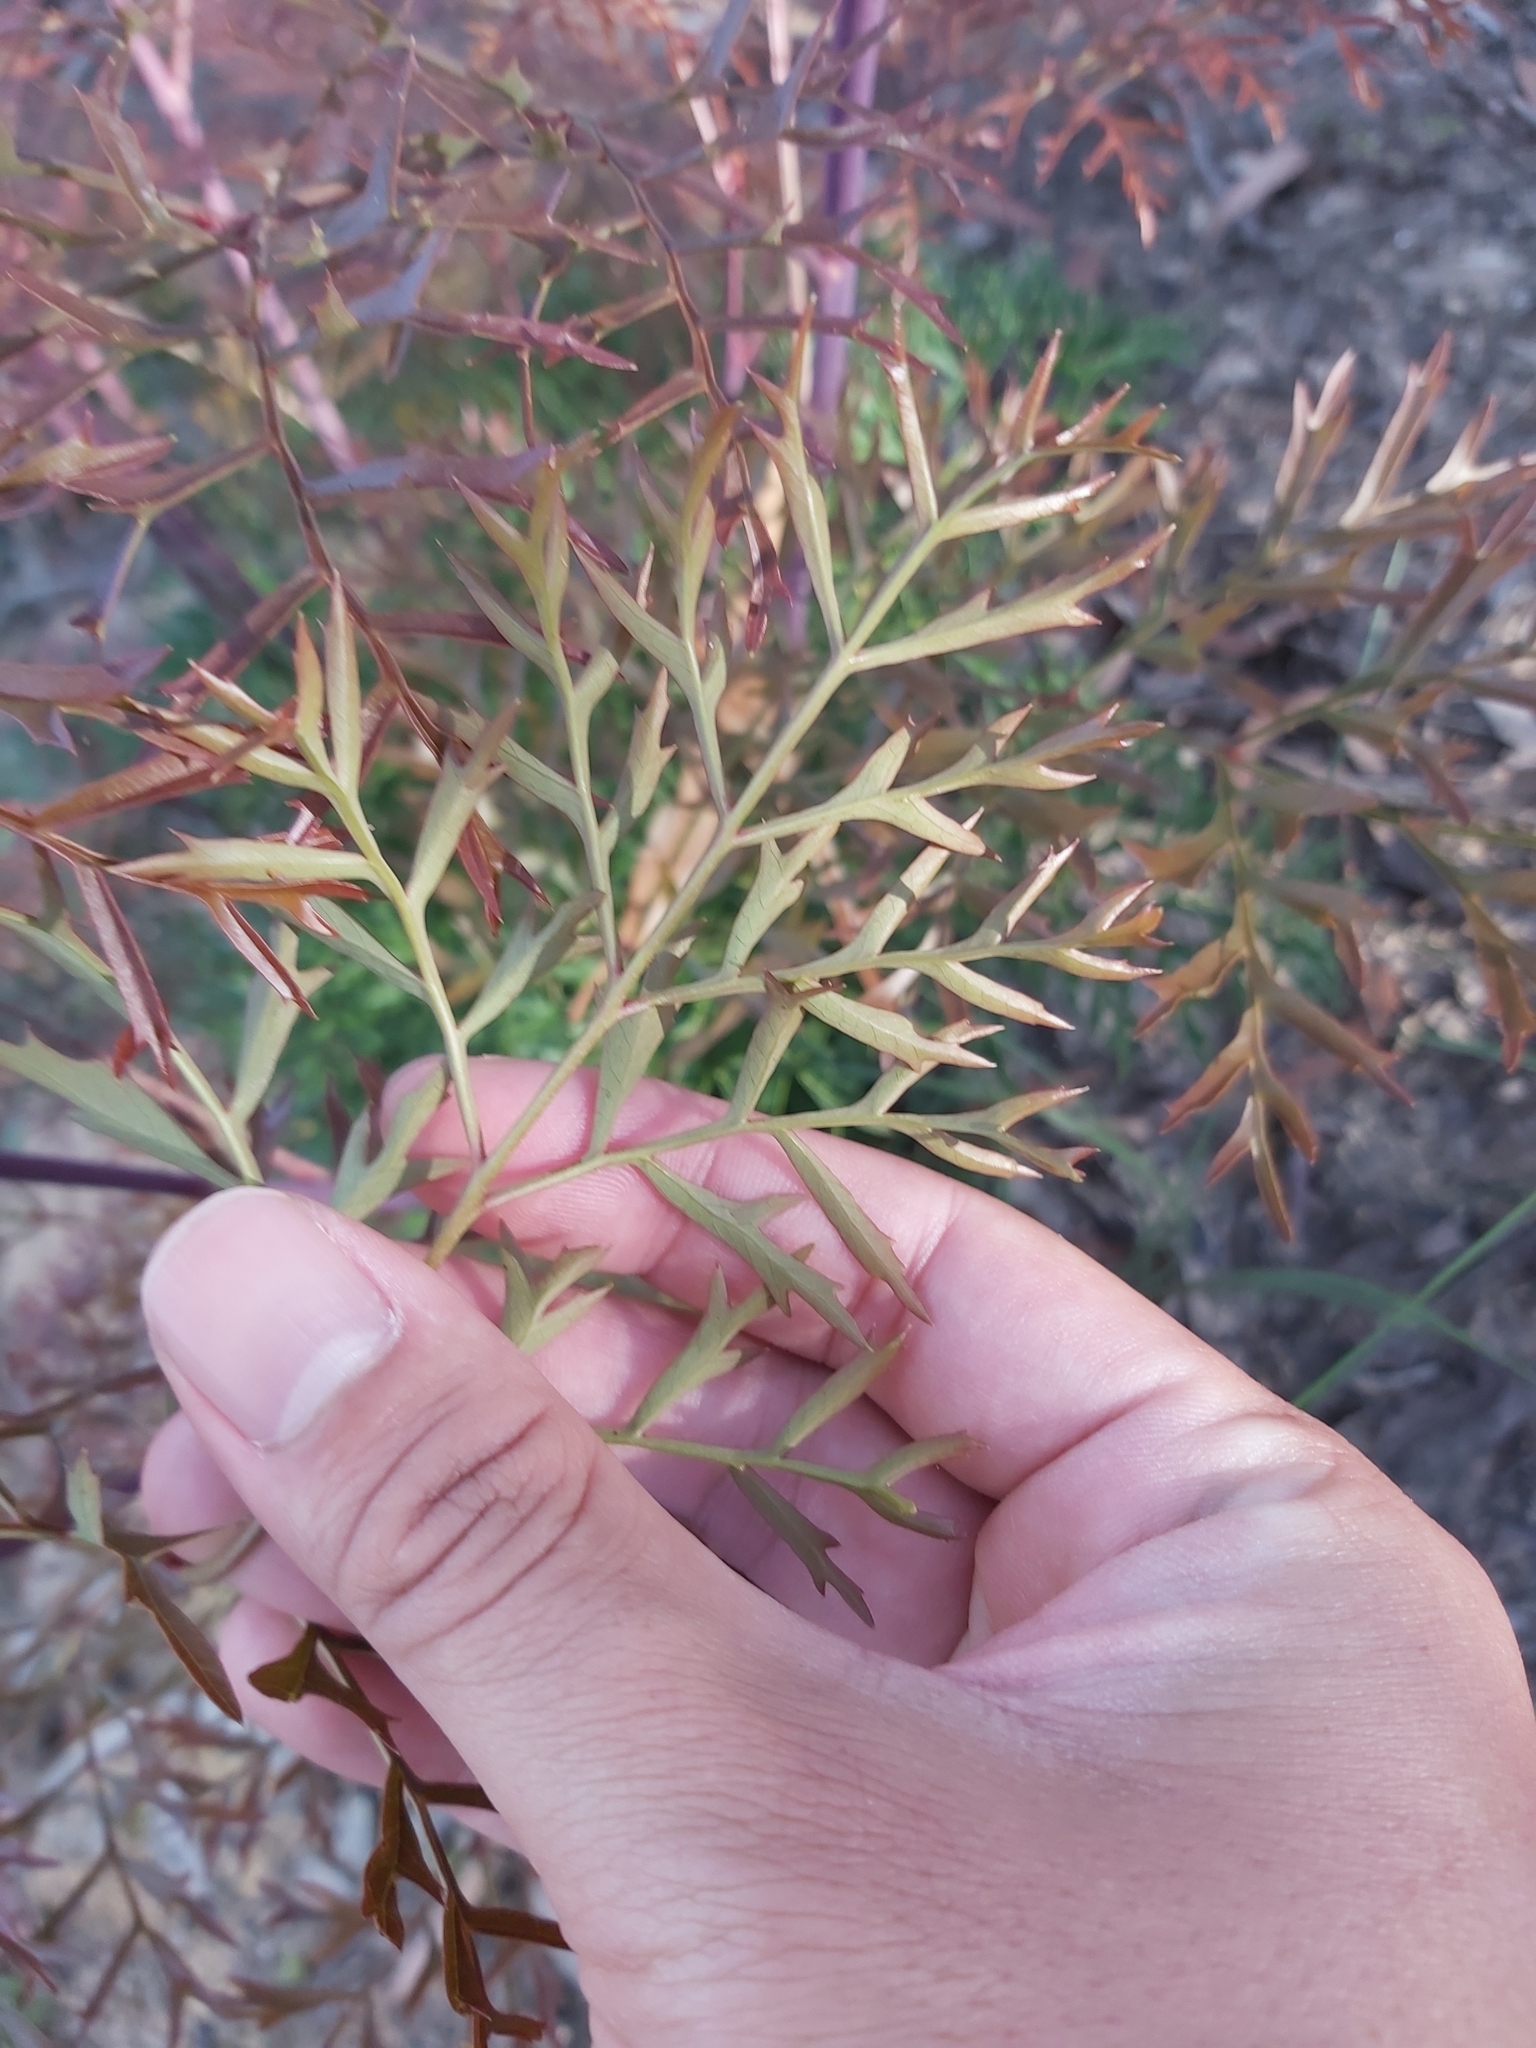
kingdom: Plantae
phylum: Tracheophyta
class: Magnoliopsida
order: Proteales
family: Proteaceae
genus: Lomatia
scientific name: Lomatia silaifolia
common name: Crinklebush
